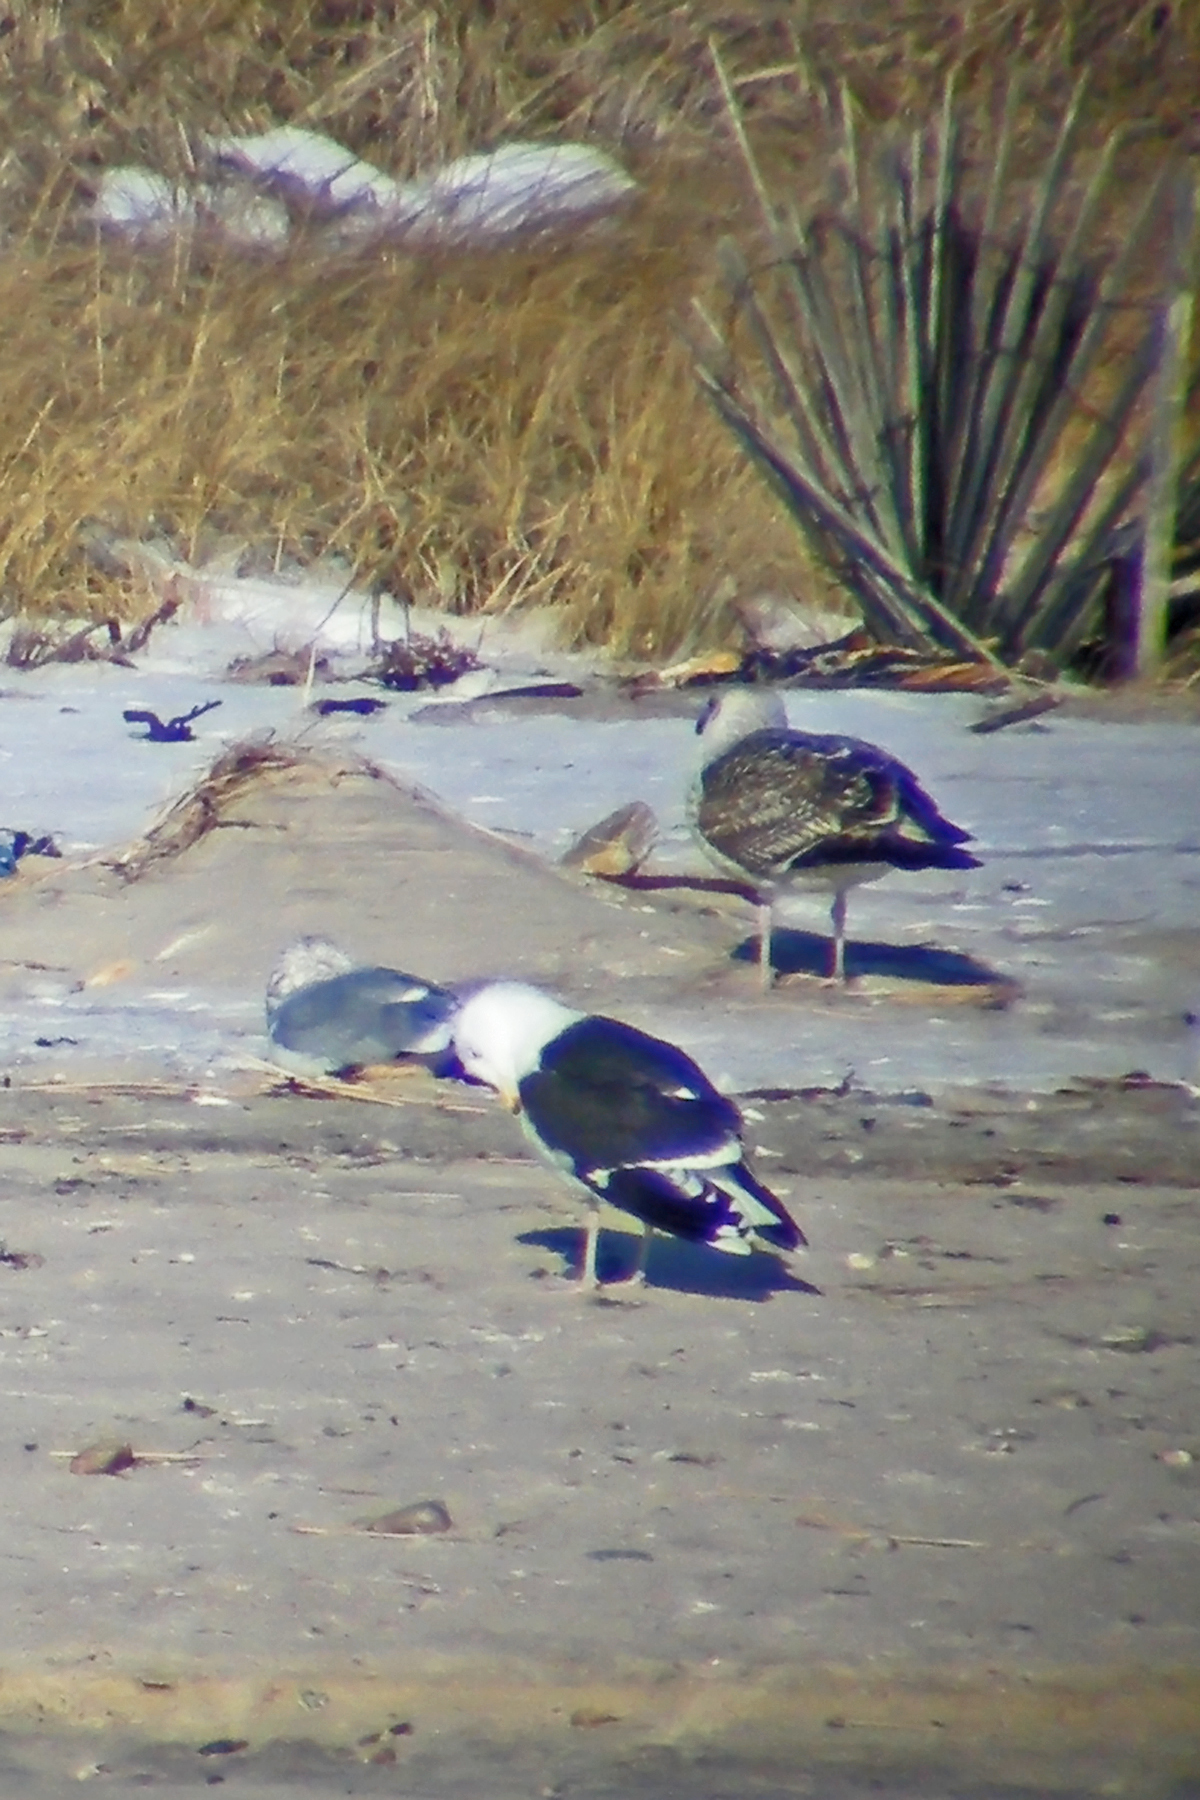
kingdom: Animalia
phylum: Chordata
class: Aves
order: Charadriiformes
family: Laridae
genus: Larus
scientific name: Larus marinus
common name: Great black-backed gull
